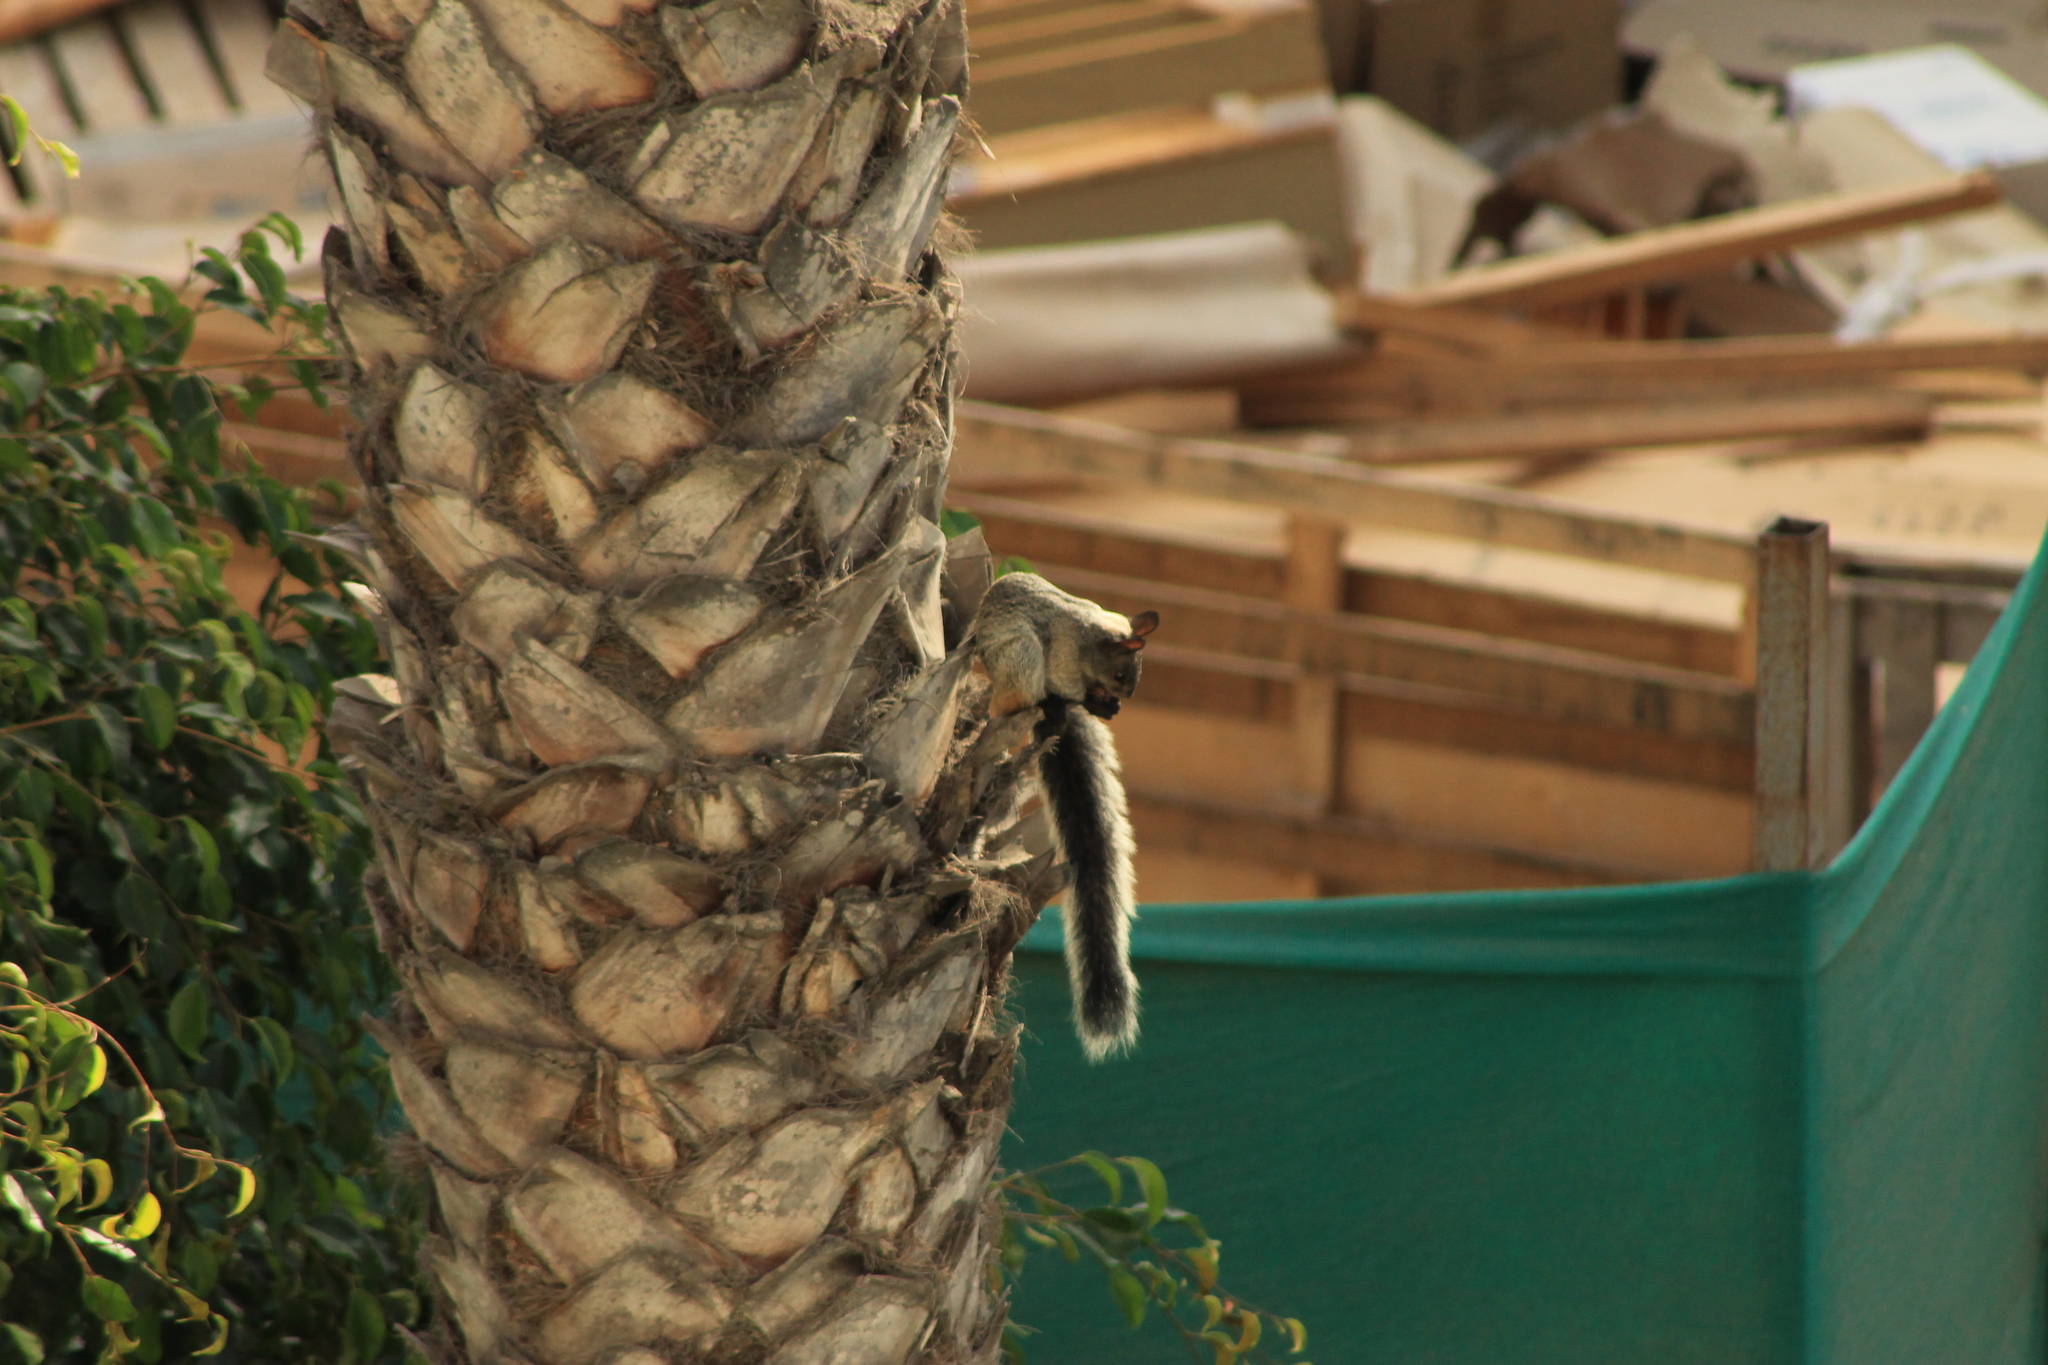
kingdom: Animalia
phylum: Chordata
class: Mammalia
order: Rodentia
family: Sciuridae
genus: Sciurus
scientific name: Sciurus stramineus
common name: Guayaquil squirrel
